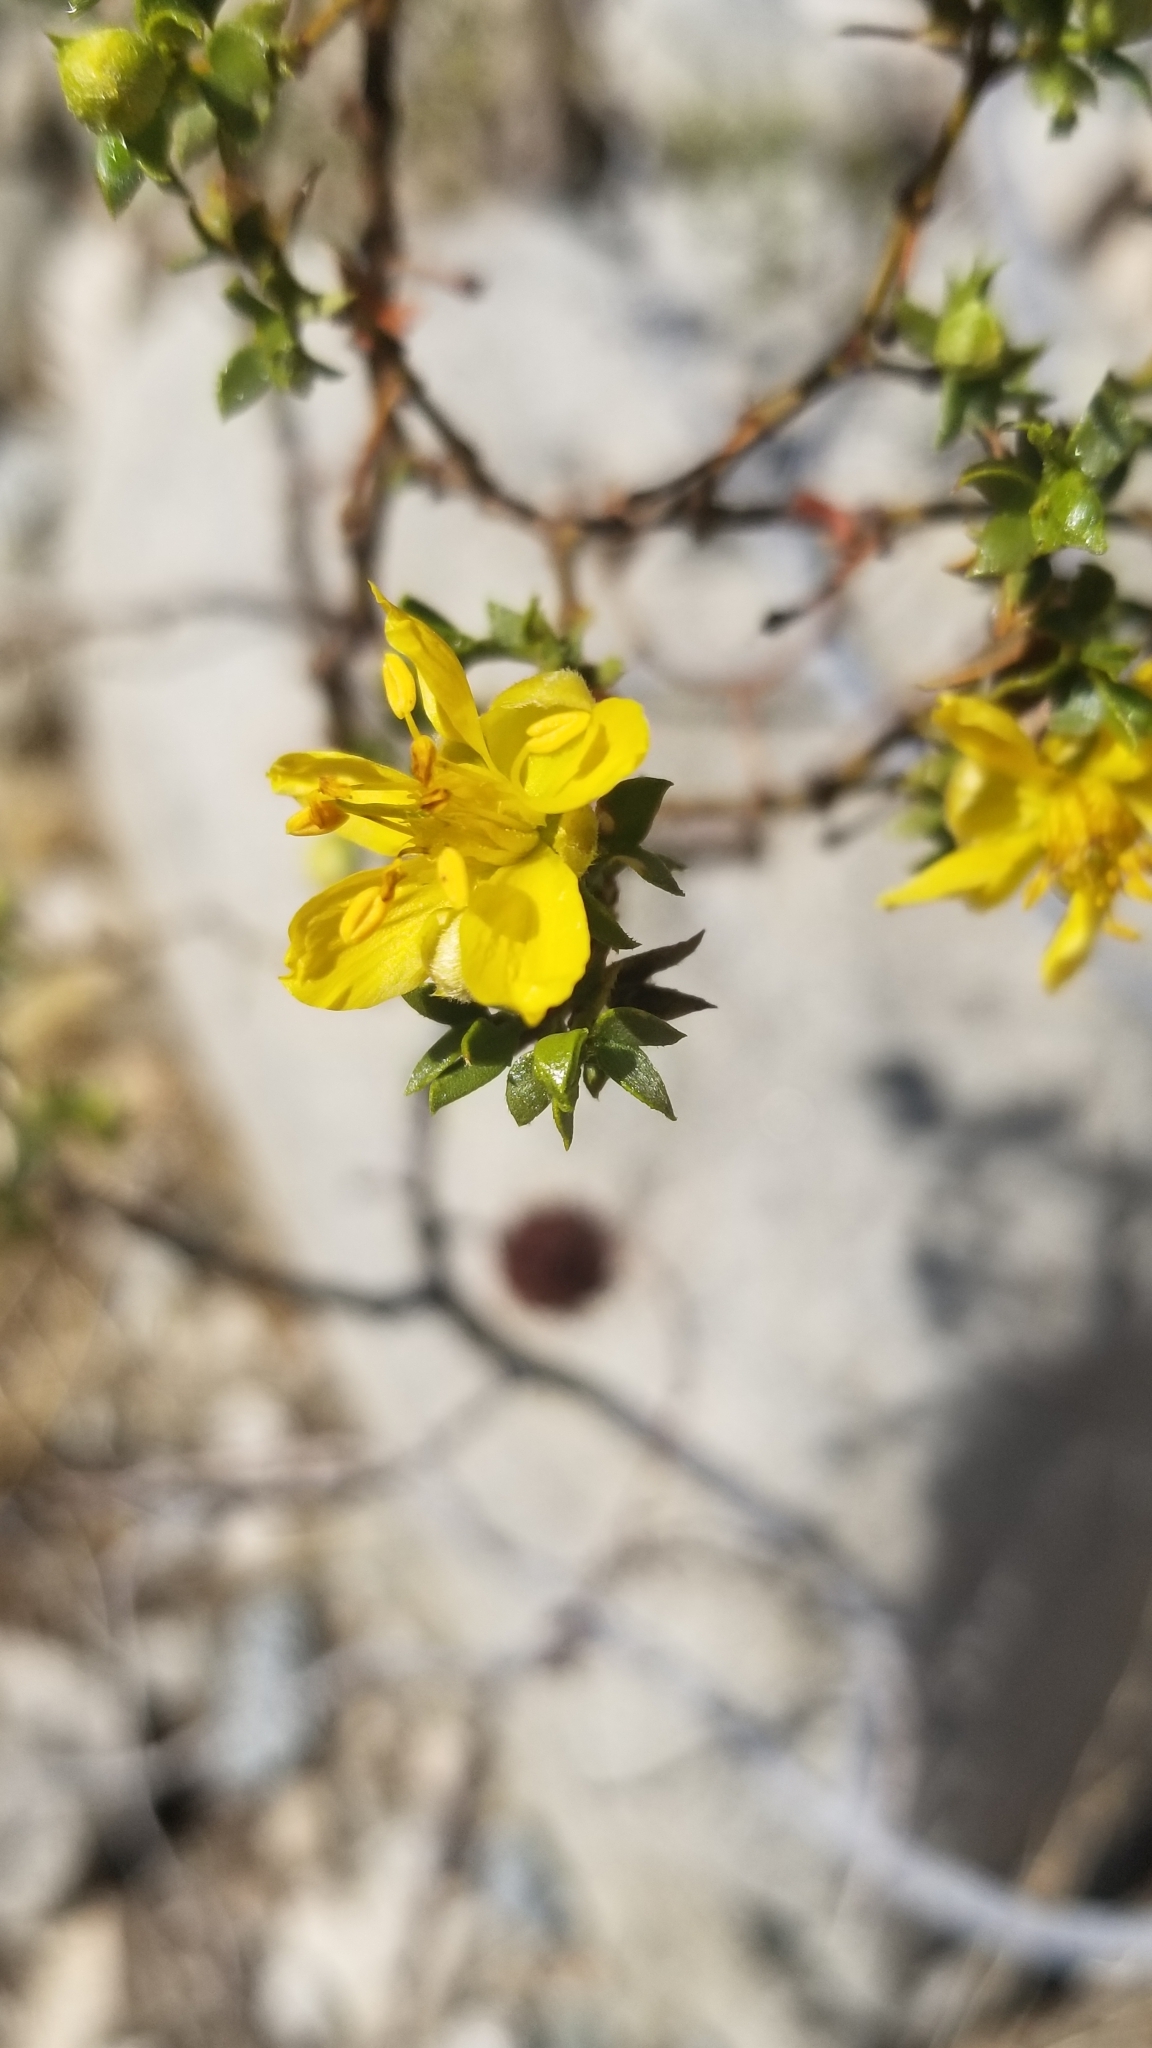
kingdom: Plantae
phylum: Tracheophyta
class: Magnoliopsida
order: Zygophyllales
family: Zygophyllaceae
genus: Larrea
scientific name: Larrea tridentata
